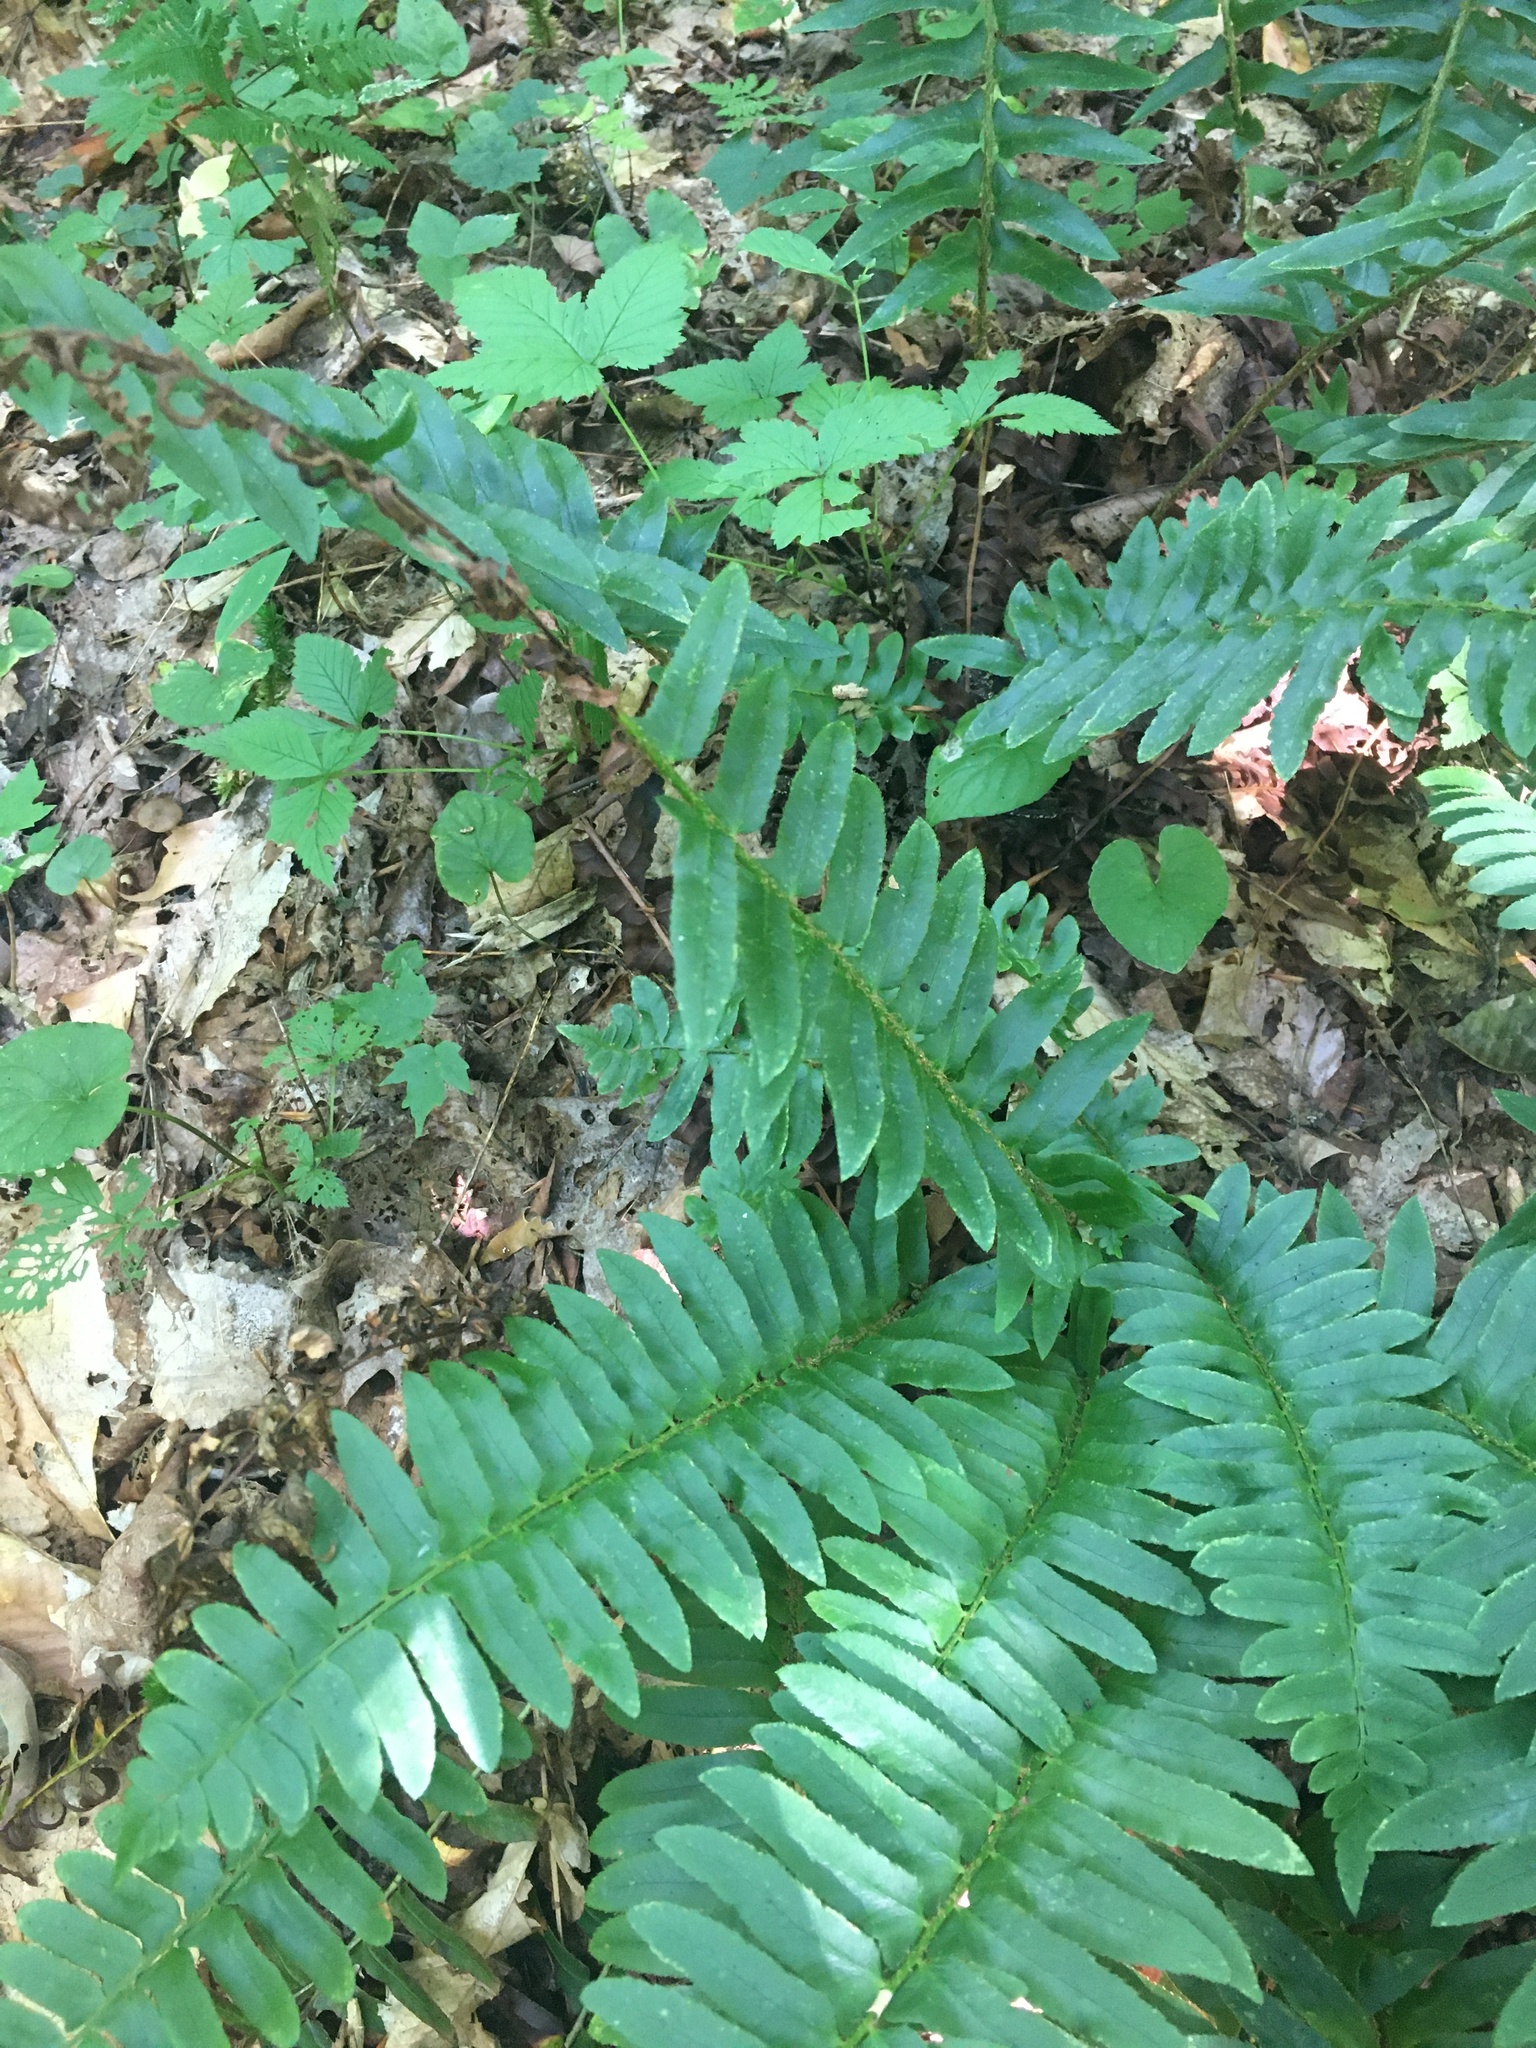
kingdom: Plantae
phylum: Tracheophyta
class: Polypodiopsida
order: Polypodiales
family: Dryopteridaceae
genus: Polystichum
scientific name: Polystichum acrostichoides
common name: Christmas fern
